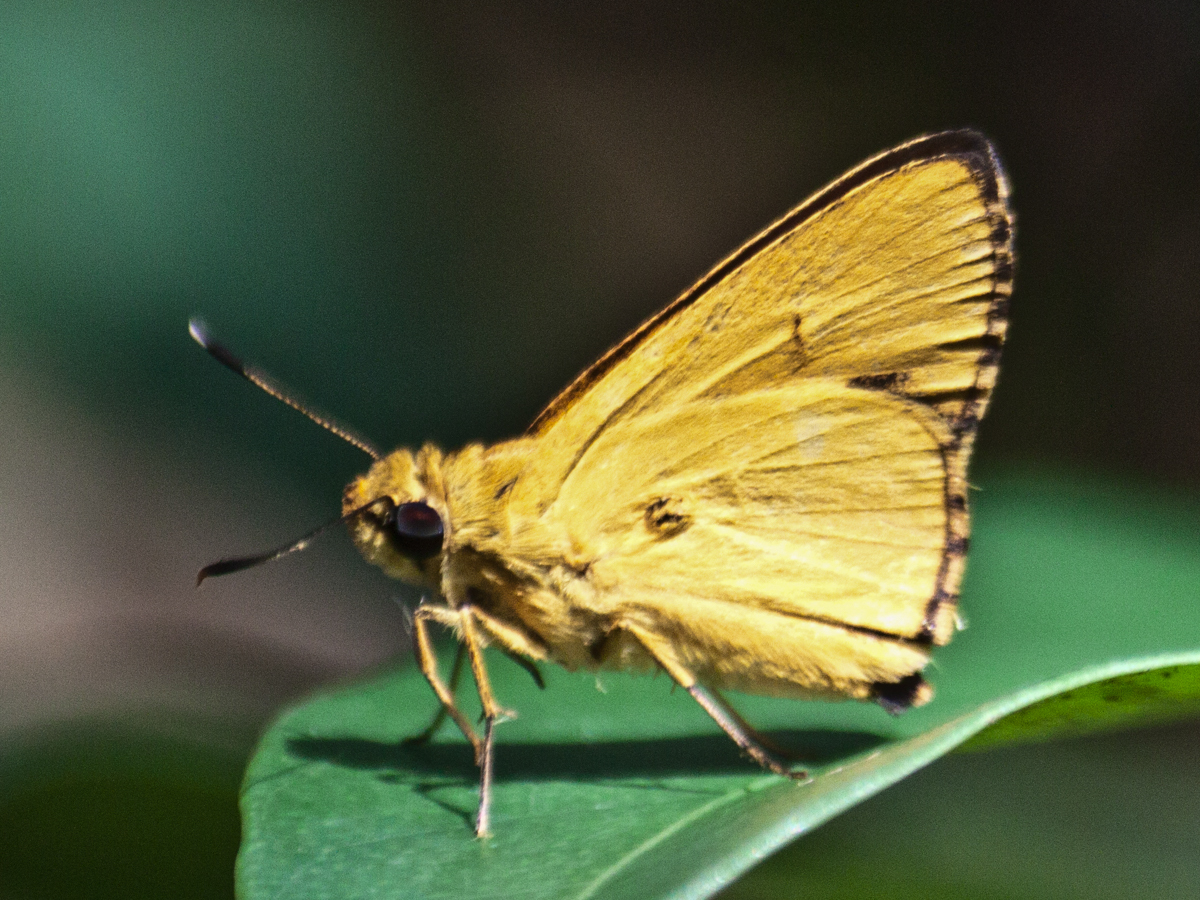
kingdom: Animalia
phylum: Arthropoda
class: Insecta
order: Lepidoptera
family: Hesperiidae
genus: Cupitha
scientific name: Cupitha purreea
